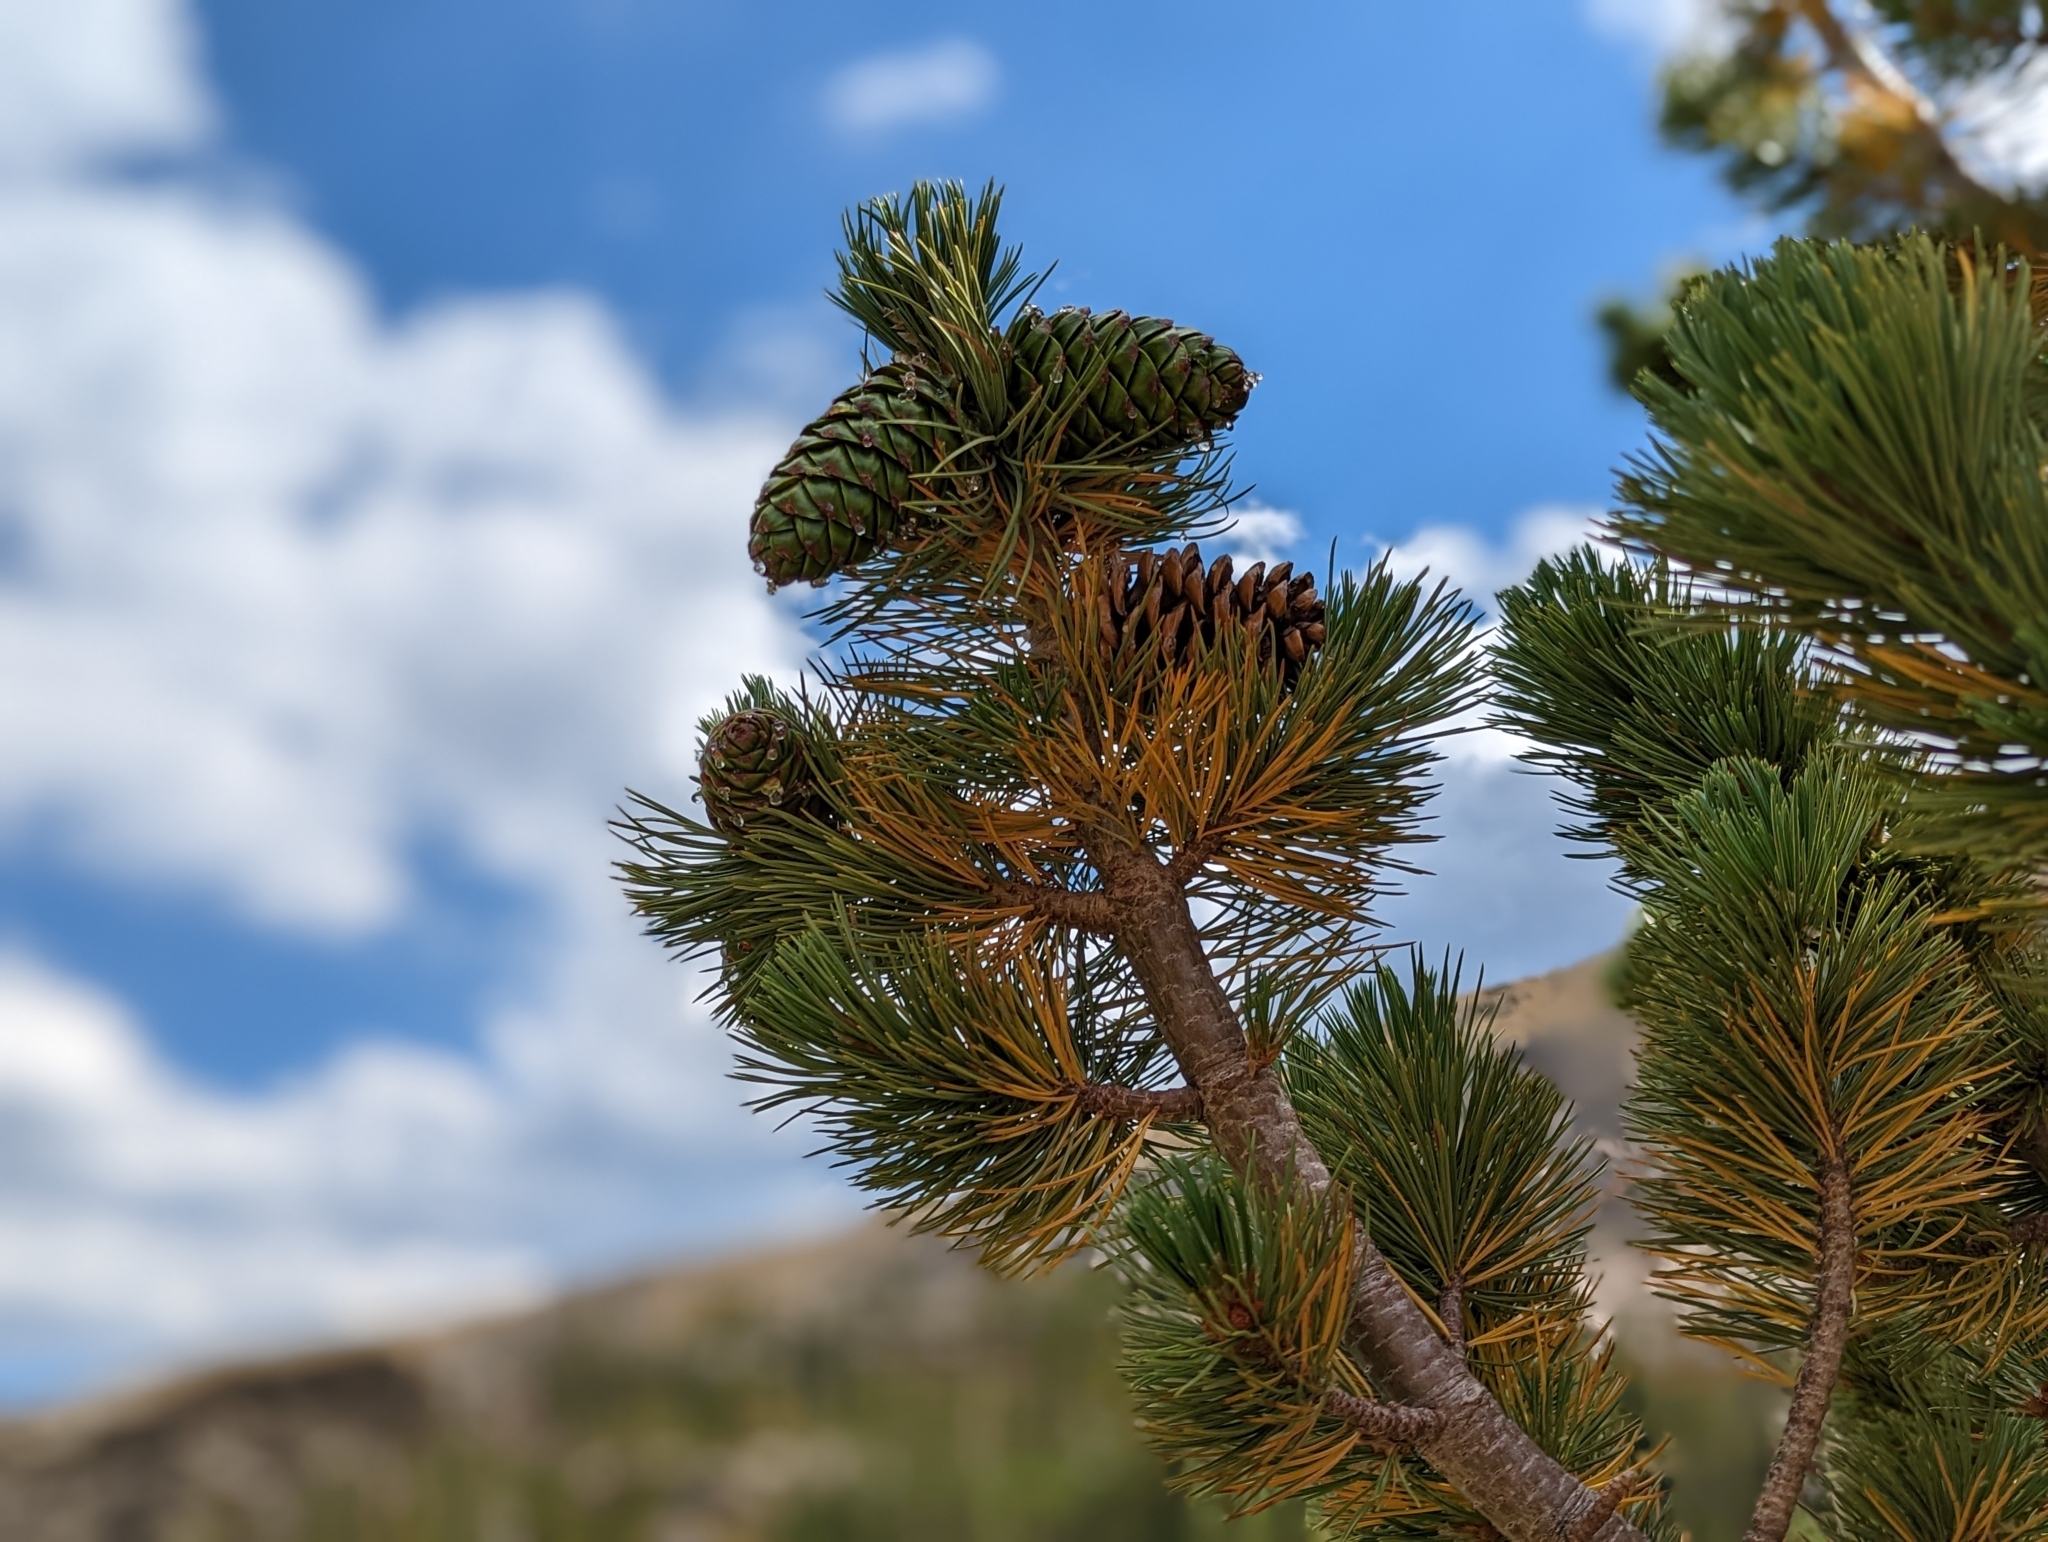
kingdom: Plantae
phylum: Tracheophyta
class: Pinopsida
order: Pinales
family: Pinaceae
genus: Pinus
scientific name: Pinus flexilis
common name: Limber pine
